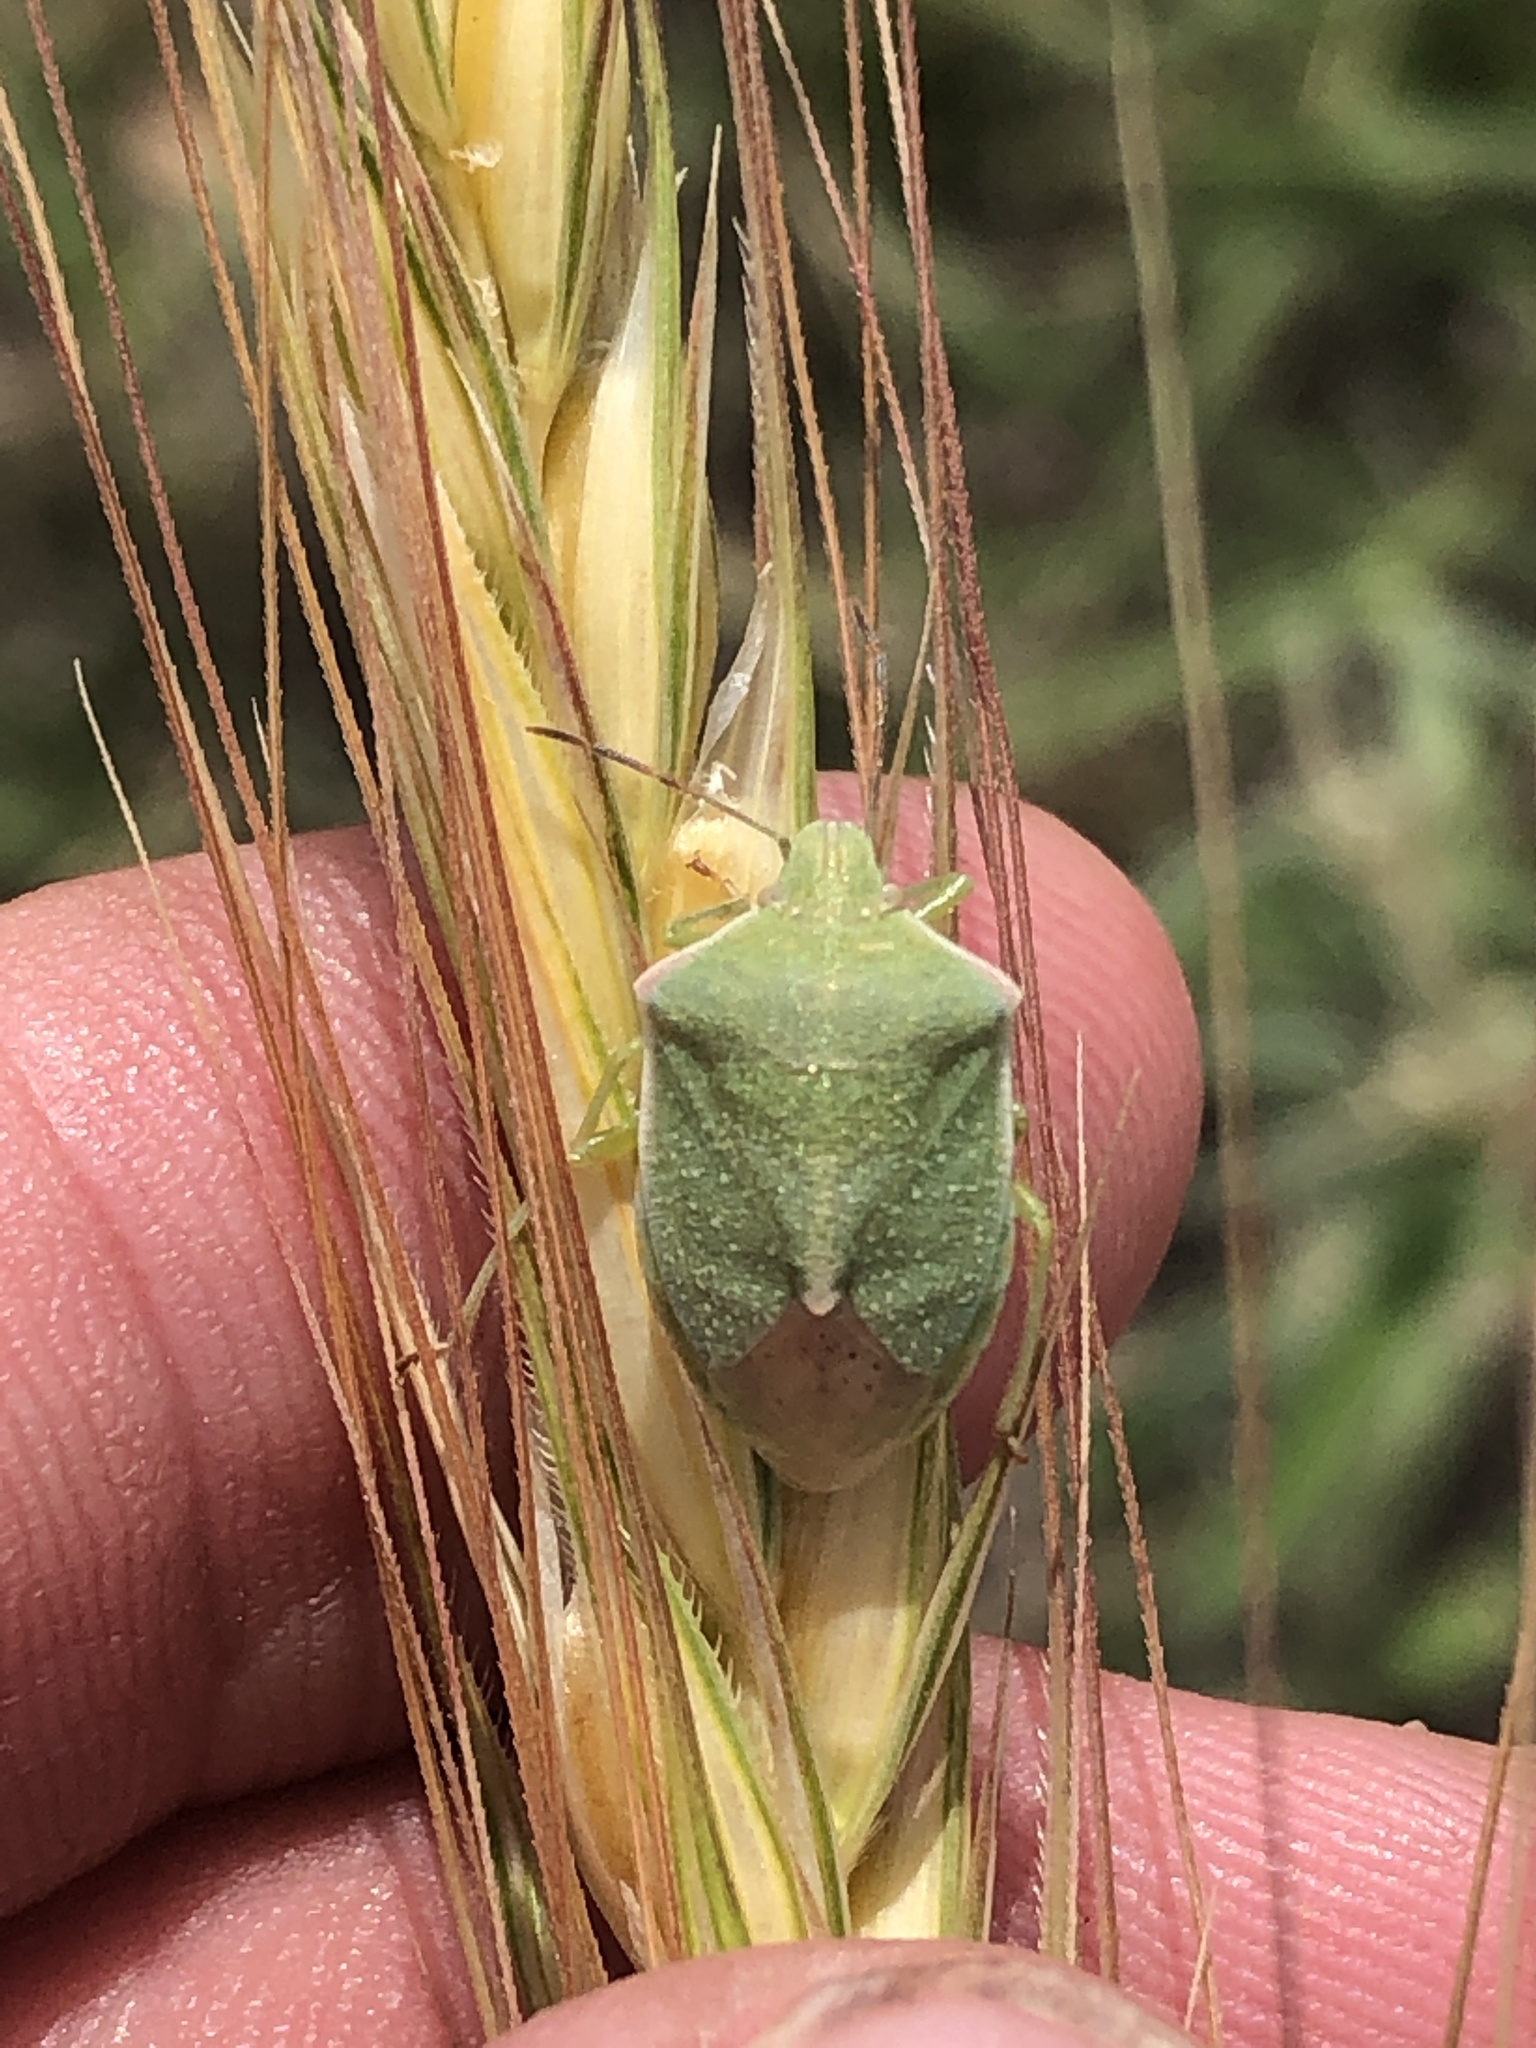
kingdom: Animalia
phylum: Arthropoda
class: Insecta
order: Hemiptera
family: Pentatomidae
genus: Thyanta
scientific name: Thyanta custator
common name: Stink bug
